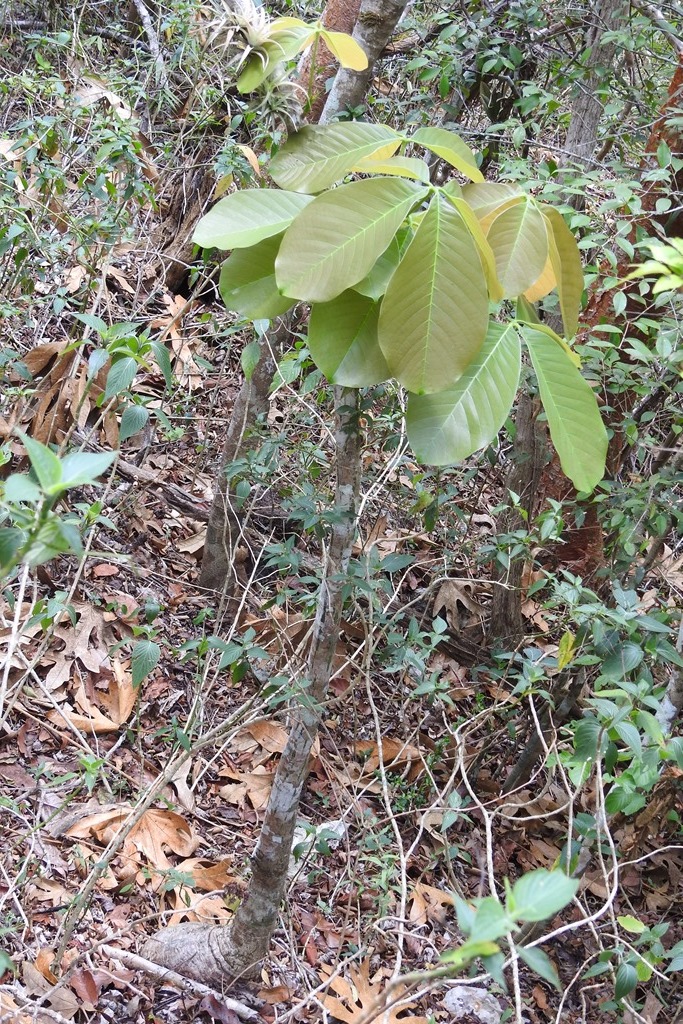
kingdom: Plantae
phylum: Tracheophyta
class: Magnoliopsida
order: Malvales
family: Malvaceae
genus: Pseudobombax
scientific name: Pseudobombax ellipticum
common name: Shaving-brush-tree
